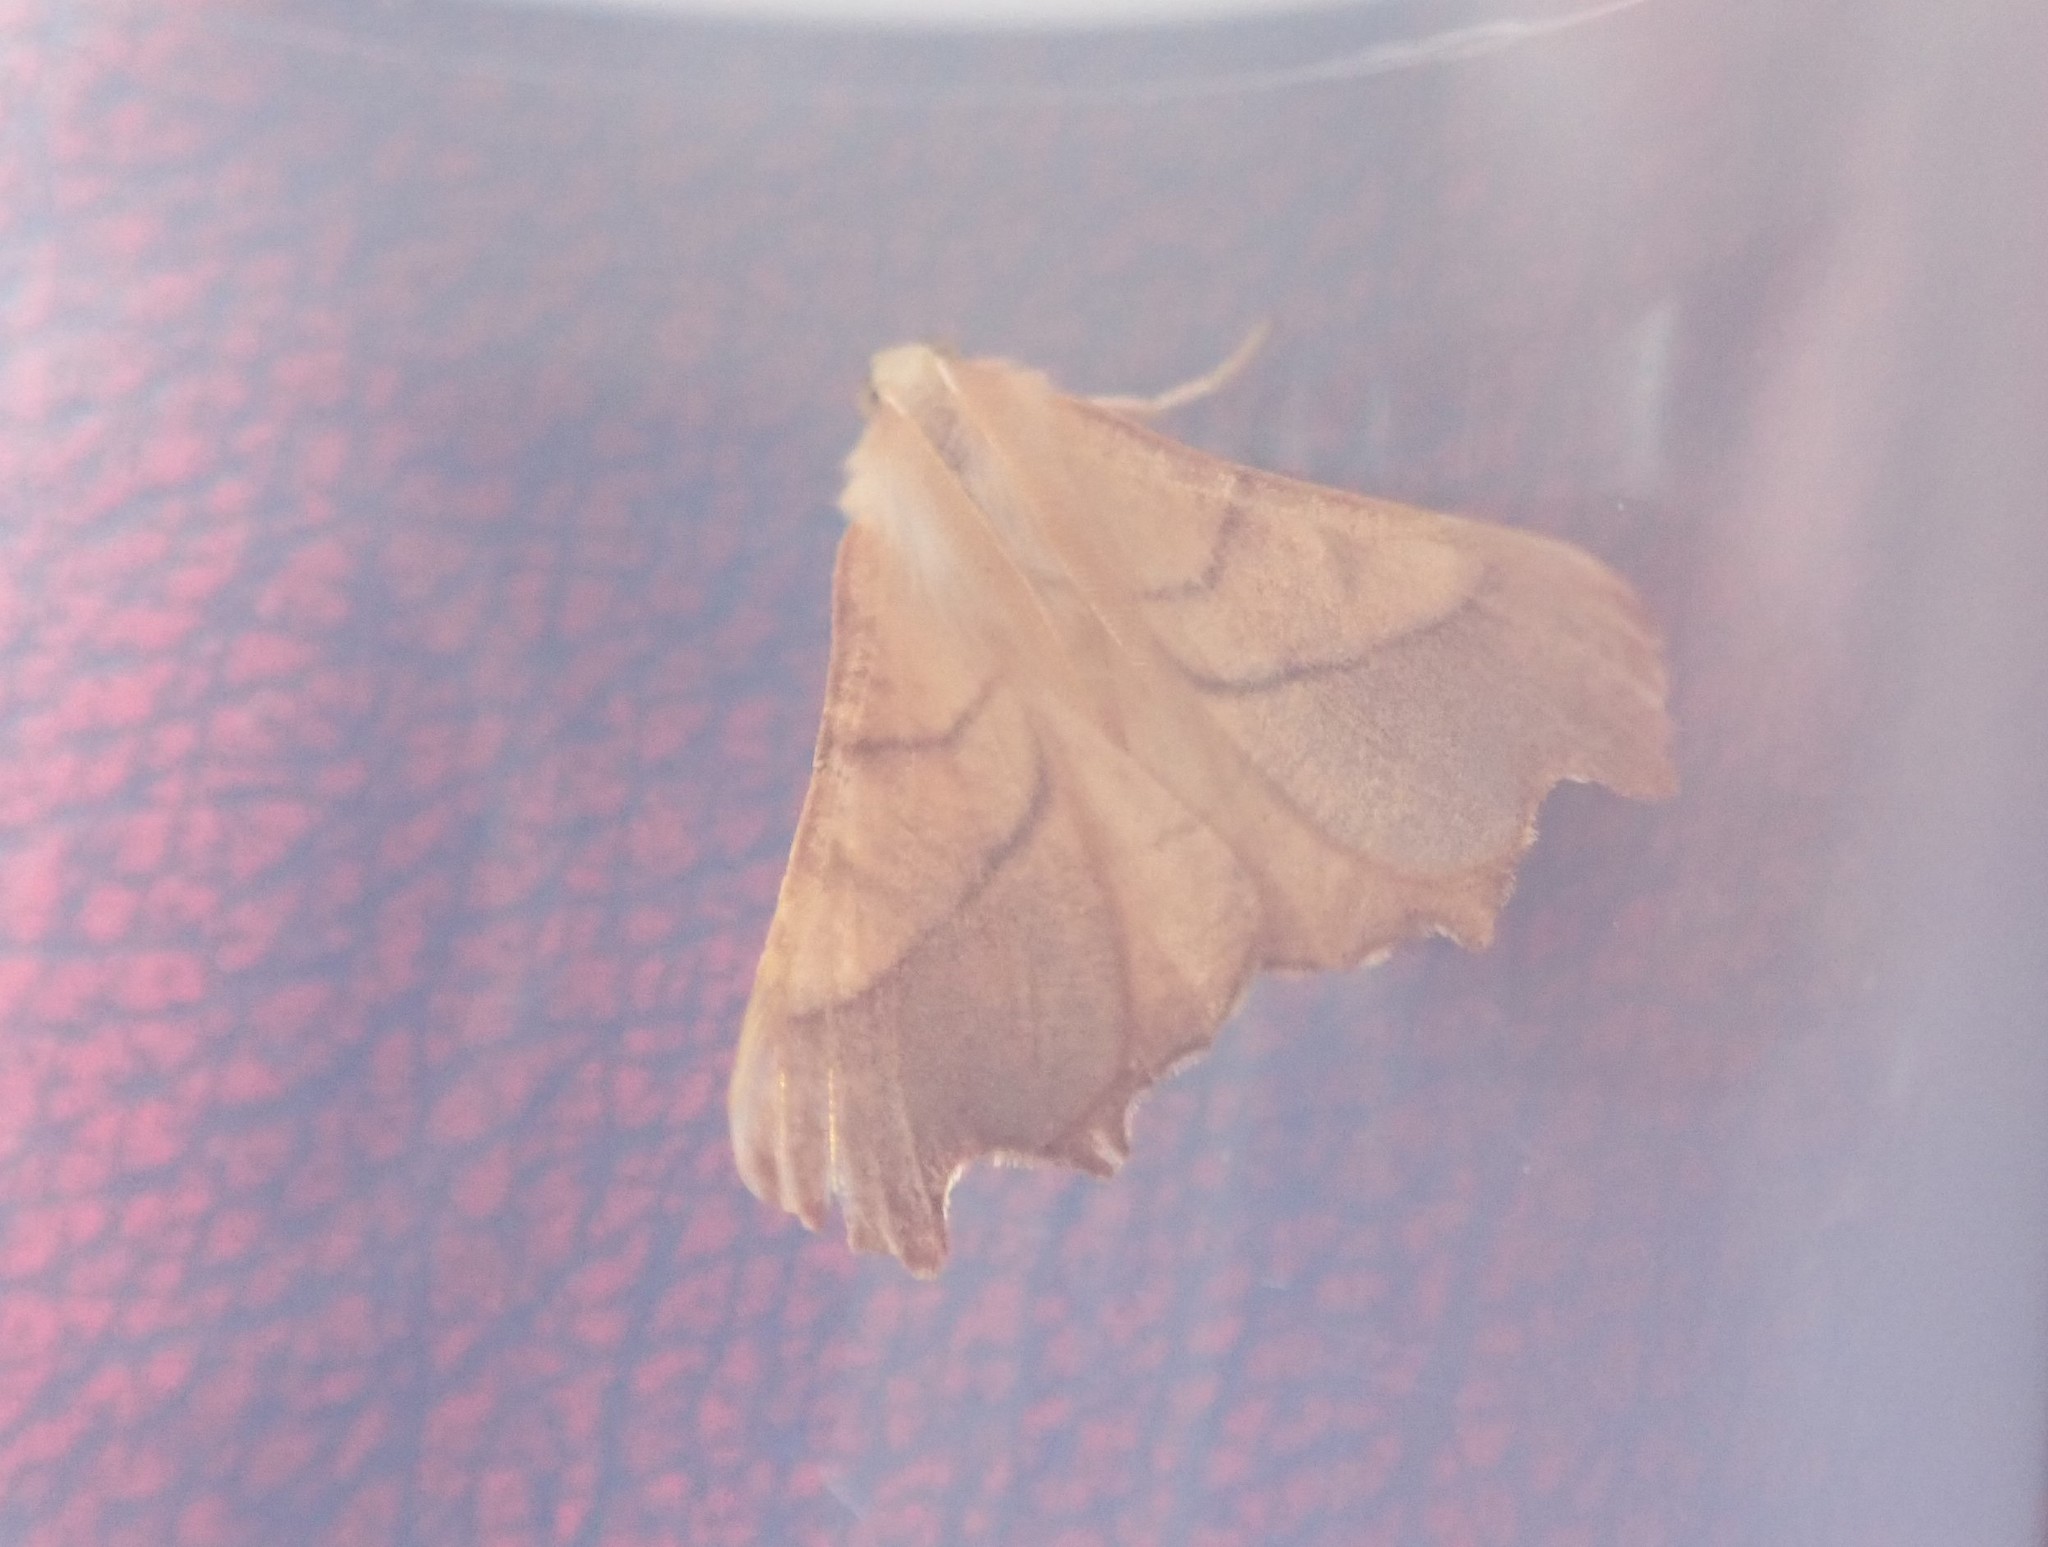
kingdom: Animalia
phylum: Arthropoda
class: Insecta
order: Lepidoptera
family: Geometridae
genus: Ennomos
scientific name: Ennomos fuscantaria
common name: Dusky thorn
